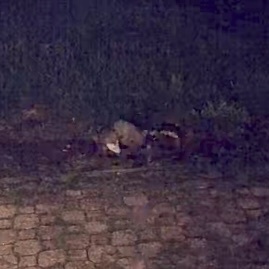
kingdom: Animalia
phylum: Chordata
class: Mammalia
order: Didelphimorphia
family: Didelphidae
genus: Didelphis
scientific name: Didelphis virginiana
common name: Virginia opossum
